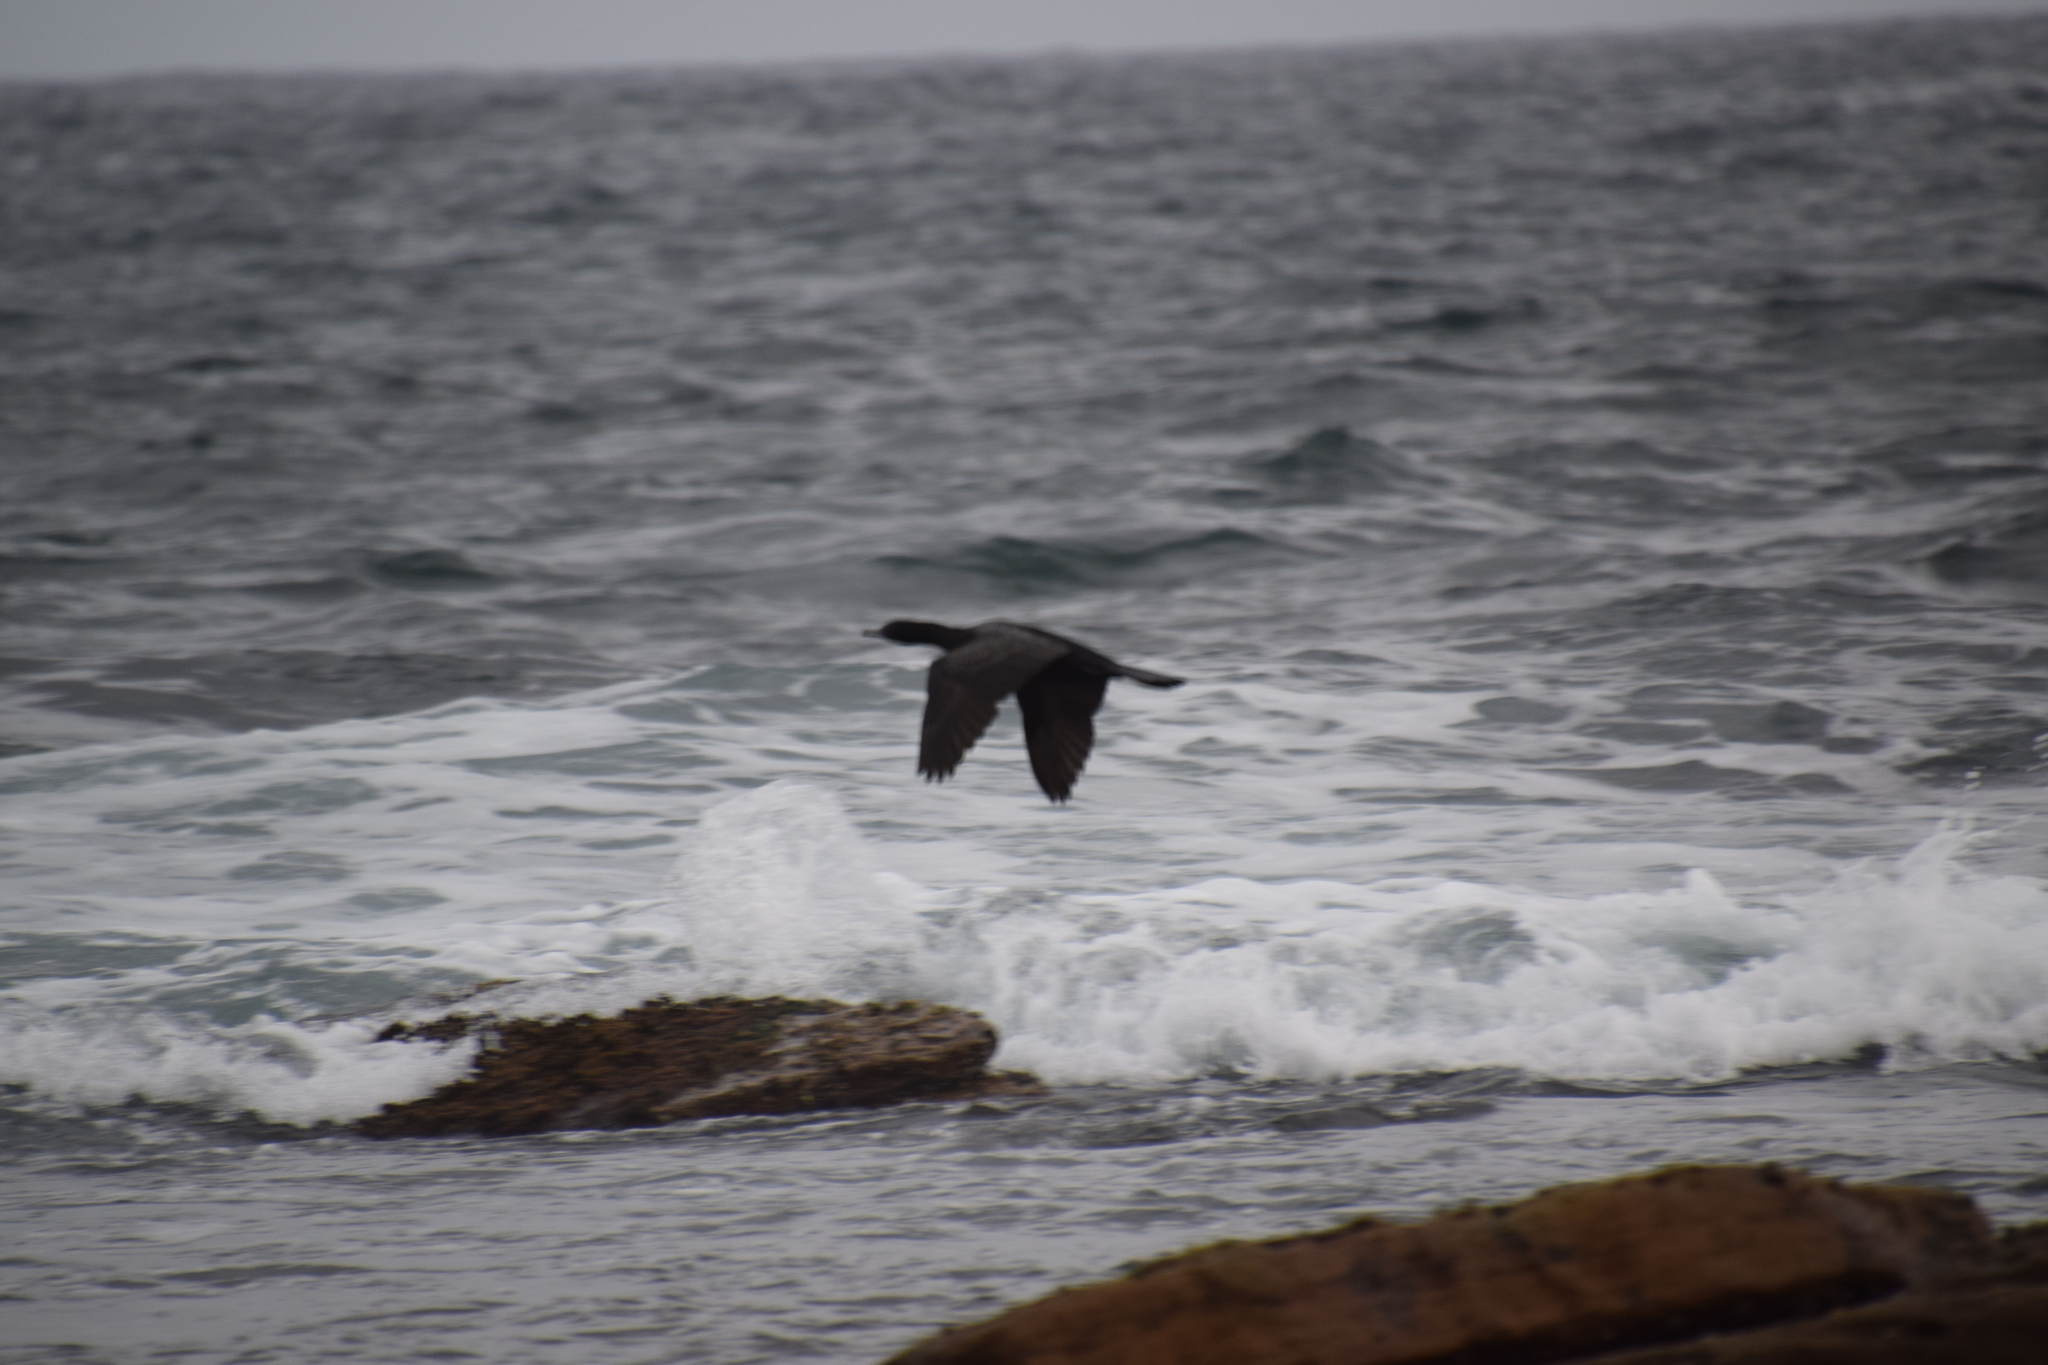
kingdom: Animalia
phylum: Chordata
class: Aves
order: Suliformes
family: Phalacrocoracidae
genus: Phalacrocorax
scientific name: Phalacrocorax sulcirostris
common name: Little black cormorant
